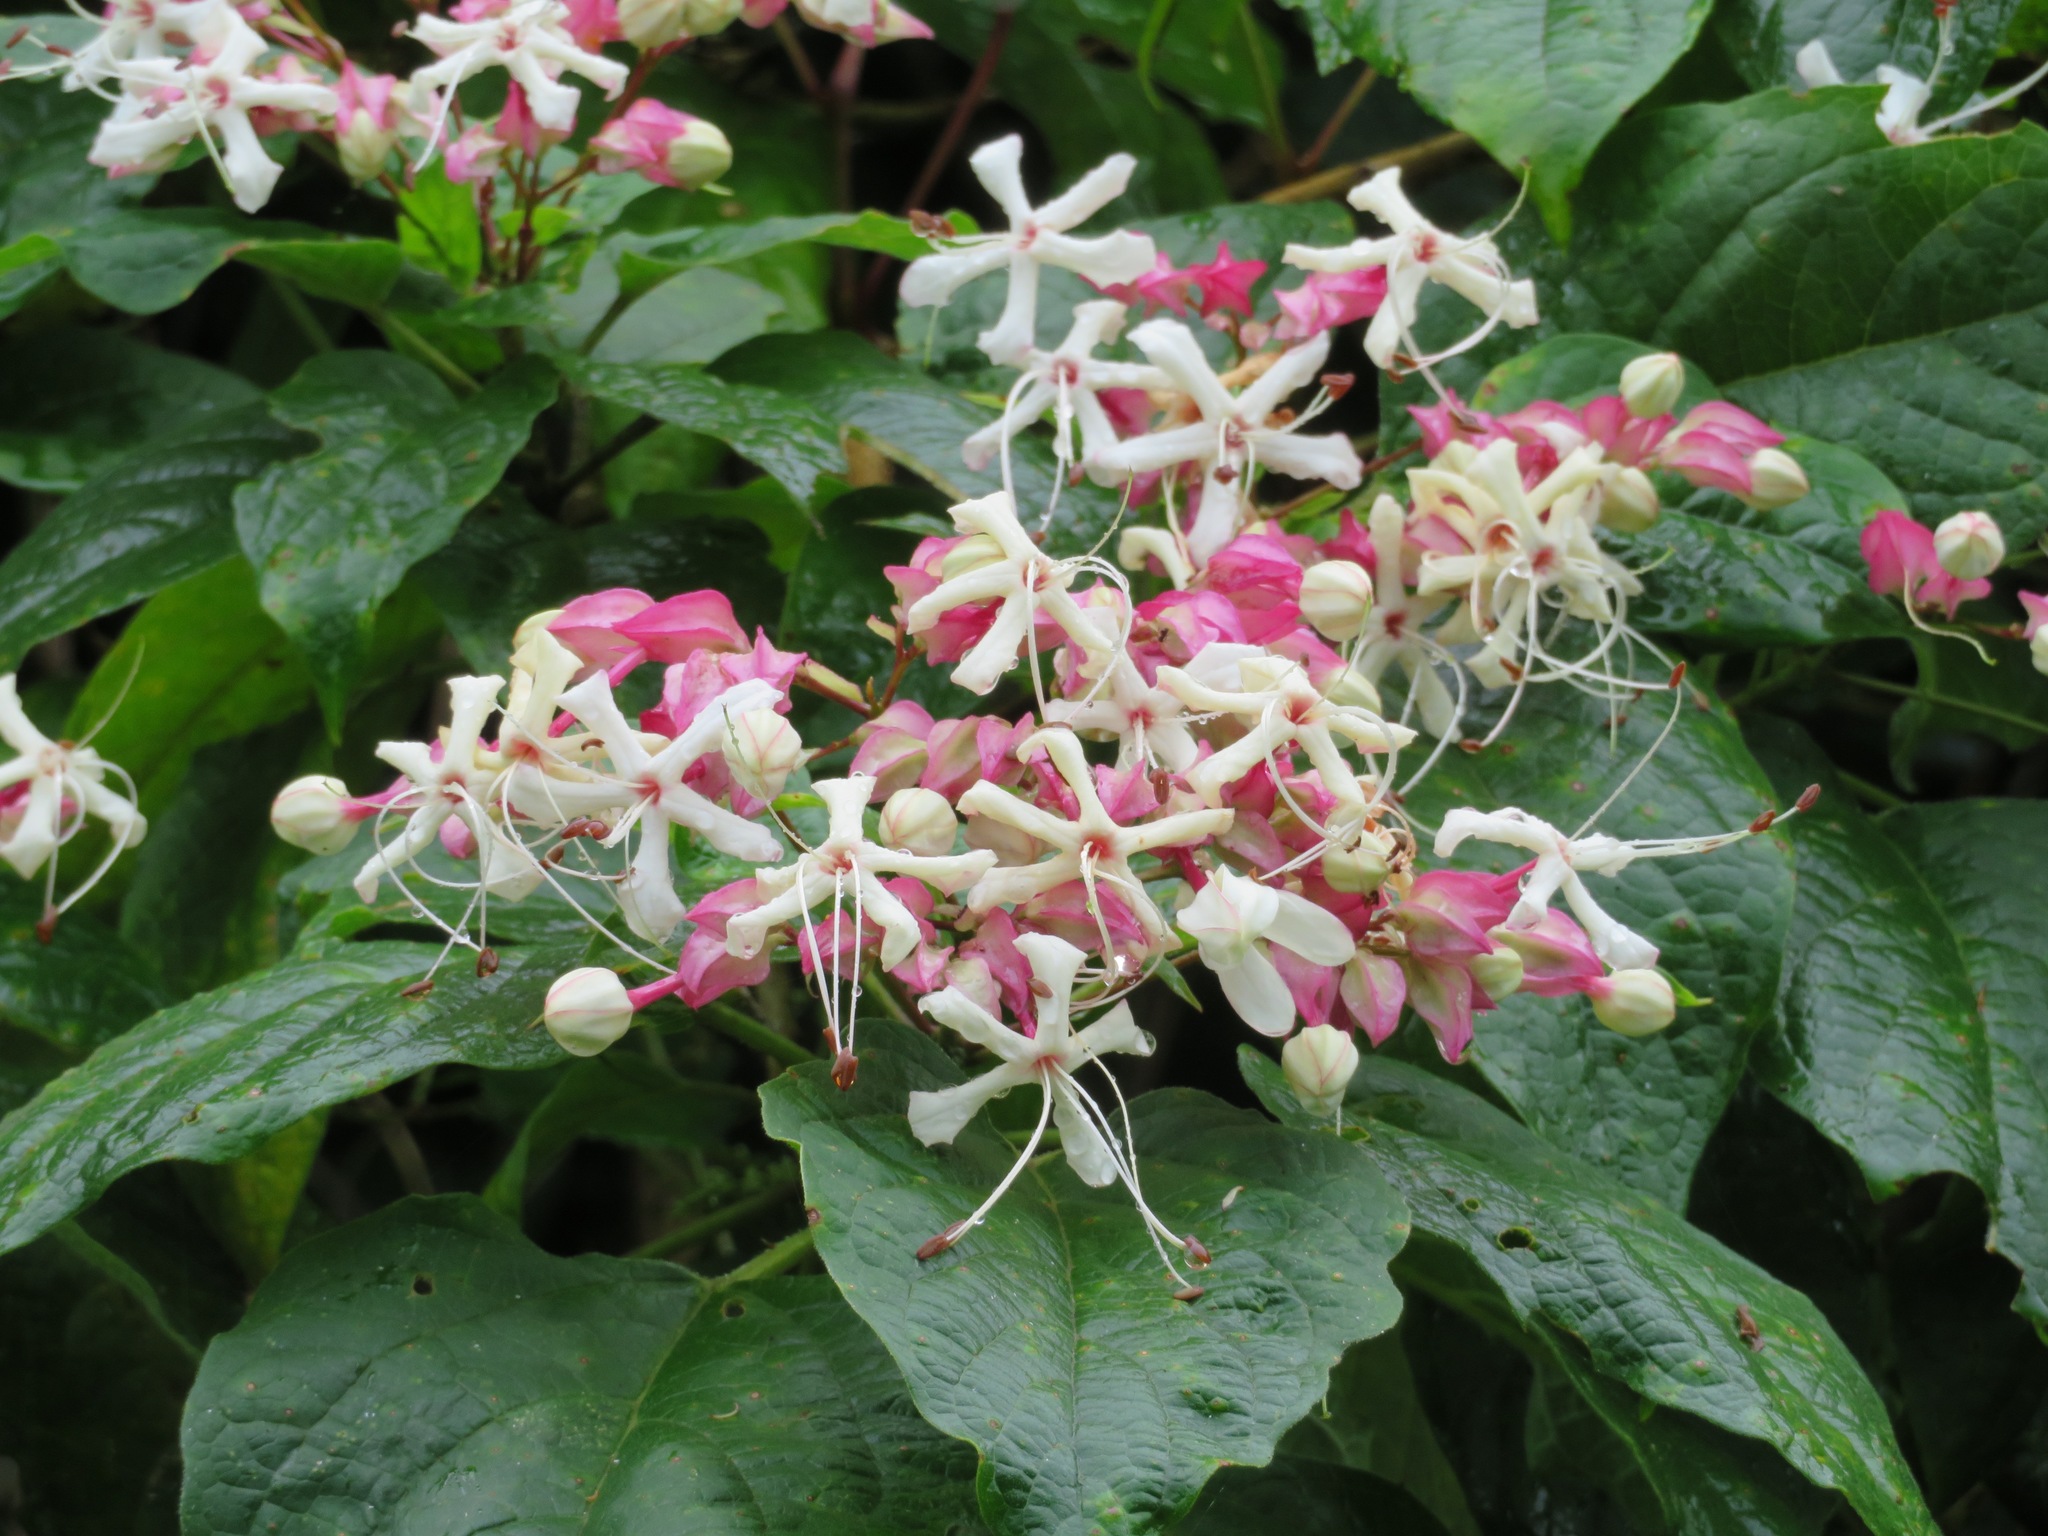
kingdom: Plantae
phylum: Tracheophyta
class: Magnoliopsida
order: Lamiales
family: Lamiaceae
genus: Clerodendrum
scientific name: Clerodendrum trichotomum
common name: Harlequin glorybower
